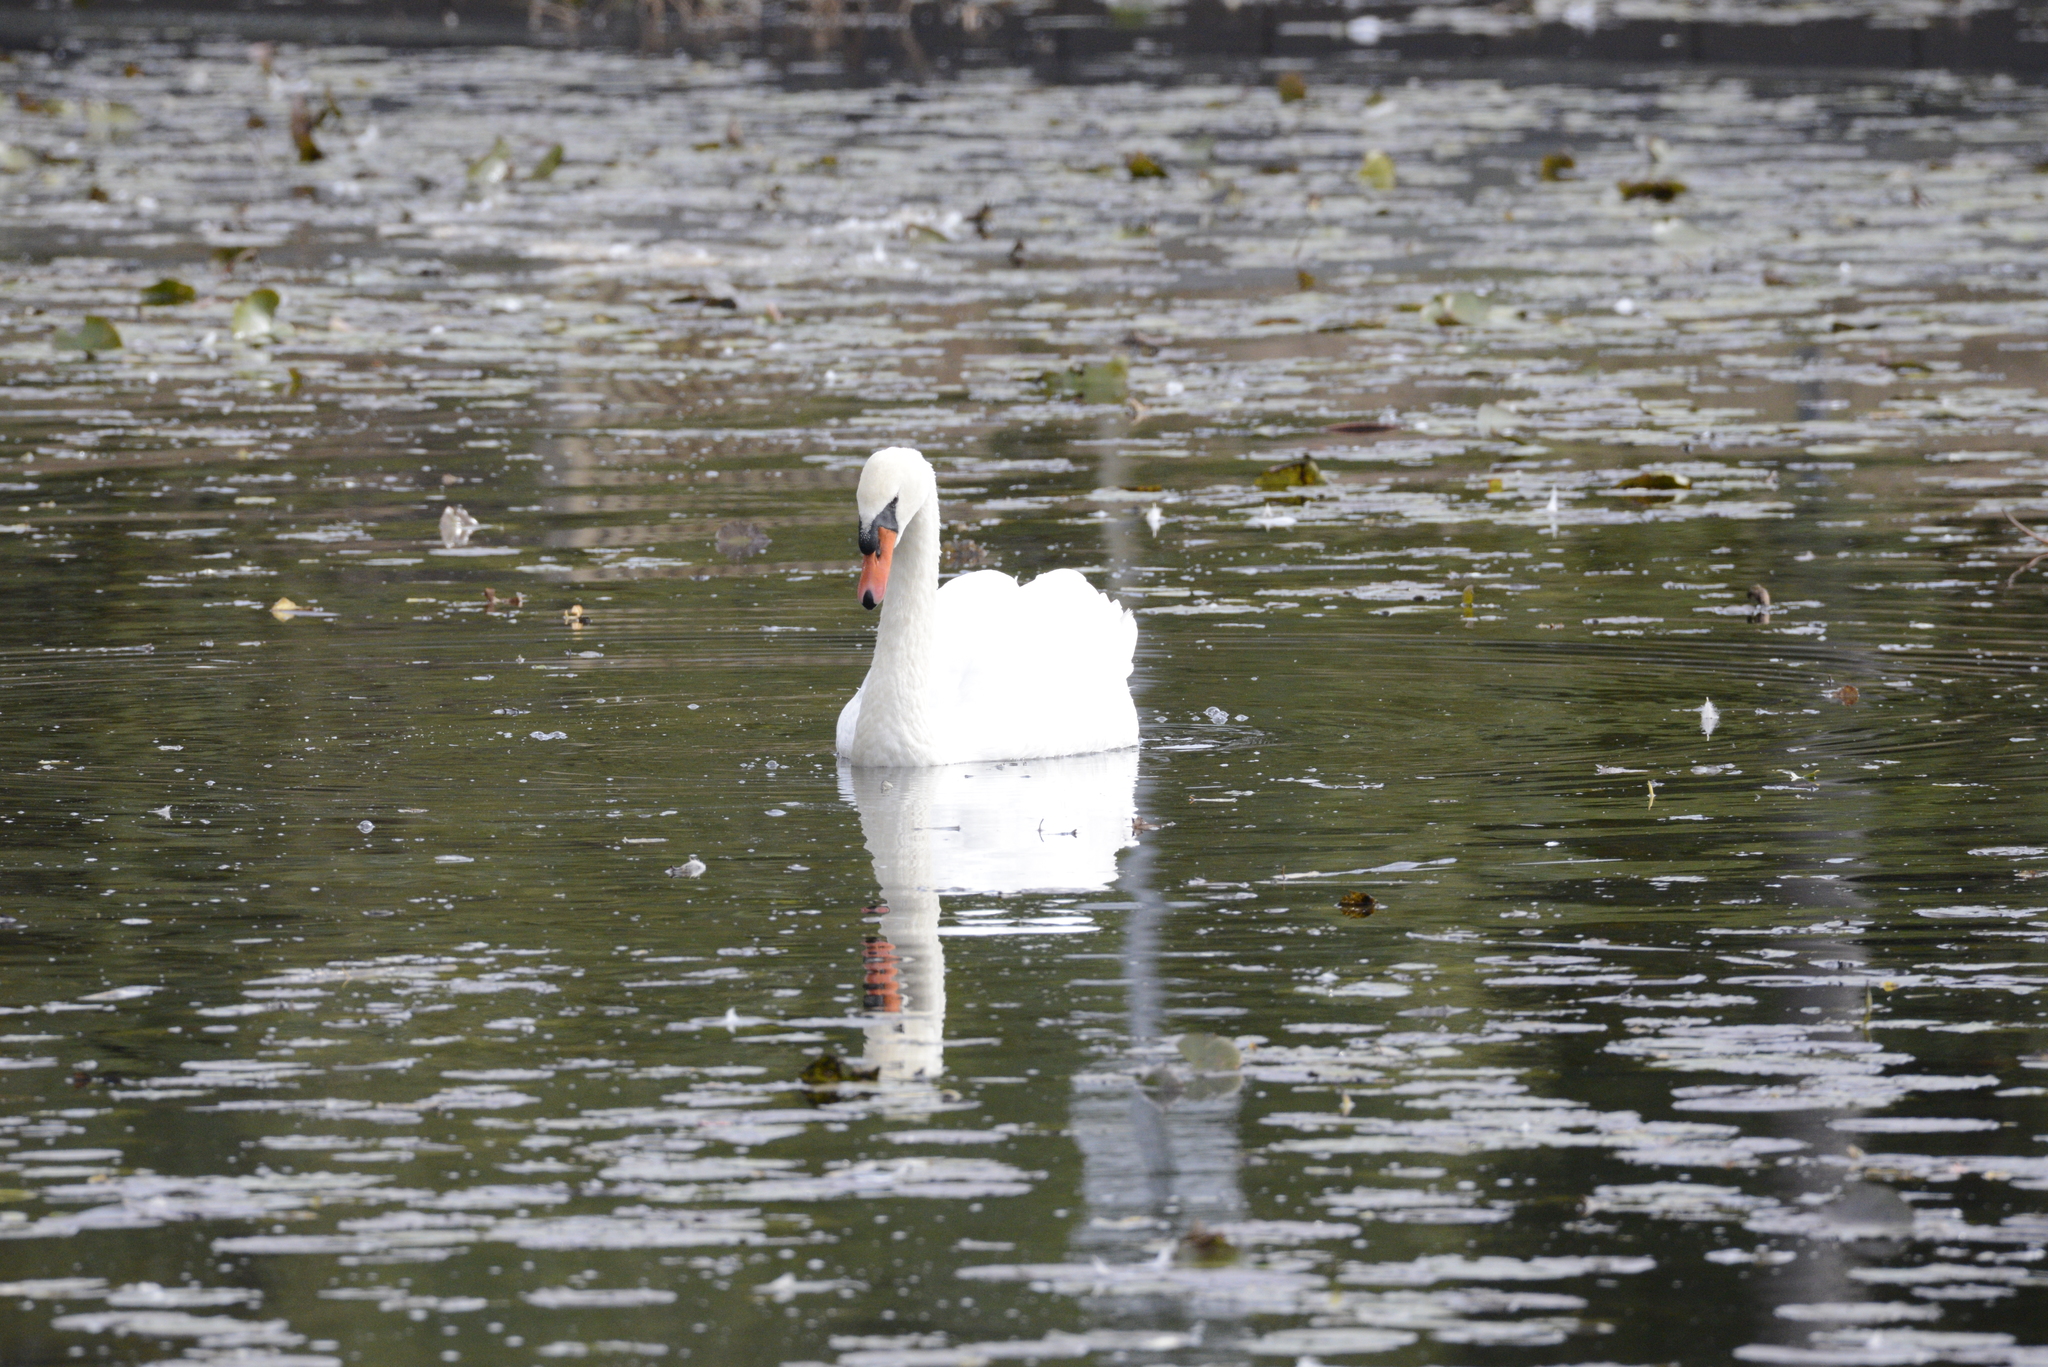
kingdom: Animalia
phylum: Chordata
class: Aves
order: Anseriformes
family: Anatidae
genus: Cygnus
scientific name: Cygnus olor
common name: Mute swan
